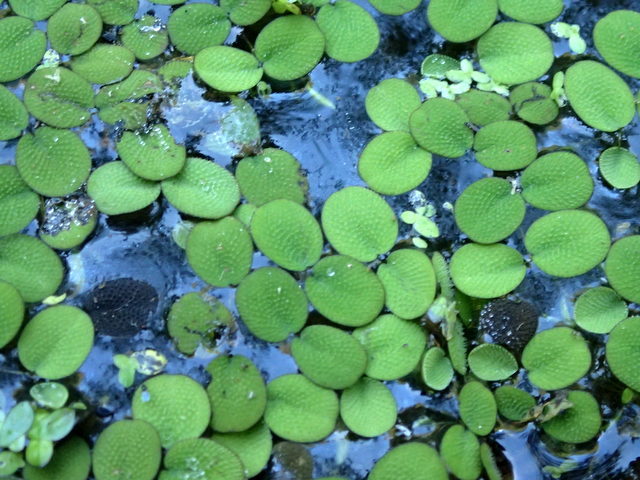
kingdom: Plantae
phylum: Tracheophyta
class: Polypodiopsida
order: Salviniales
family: Salviniaceae
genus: Salvinia
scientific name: Salvinia minima
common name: Water spangles
